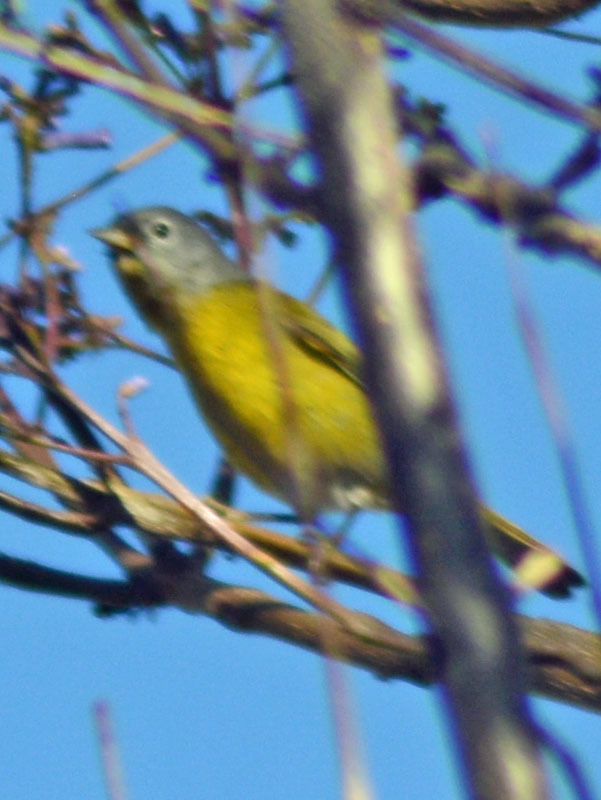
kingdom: Animalia
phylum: Chordata
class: Aves
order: Passeriformes
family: Parulidae
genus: Leiothlypis
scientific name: Leiothlypis ruficapilla
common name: Nashville warbler
